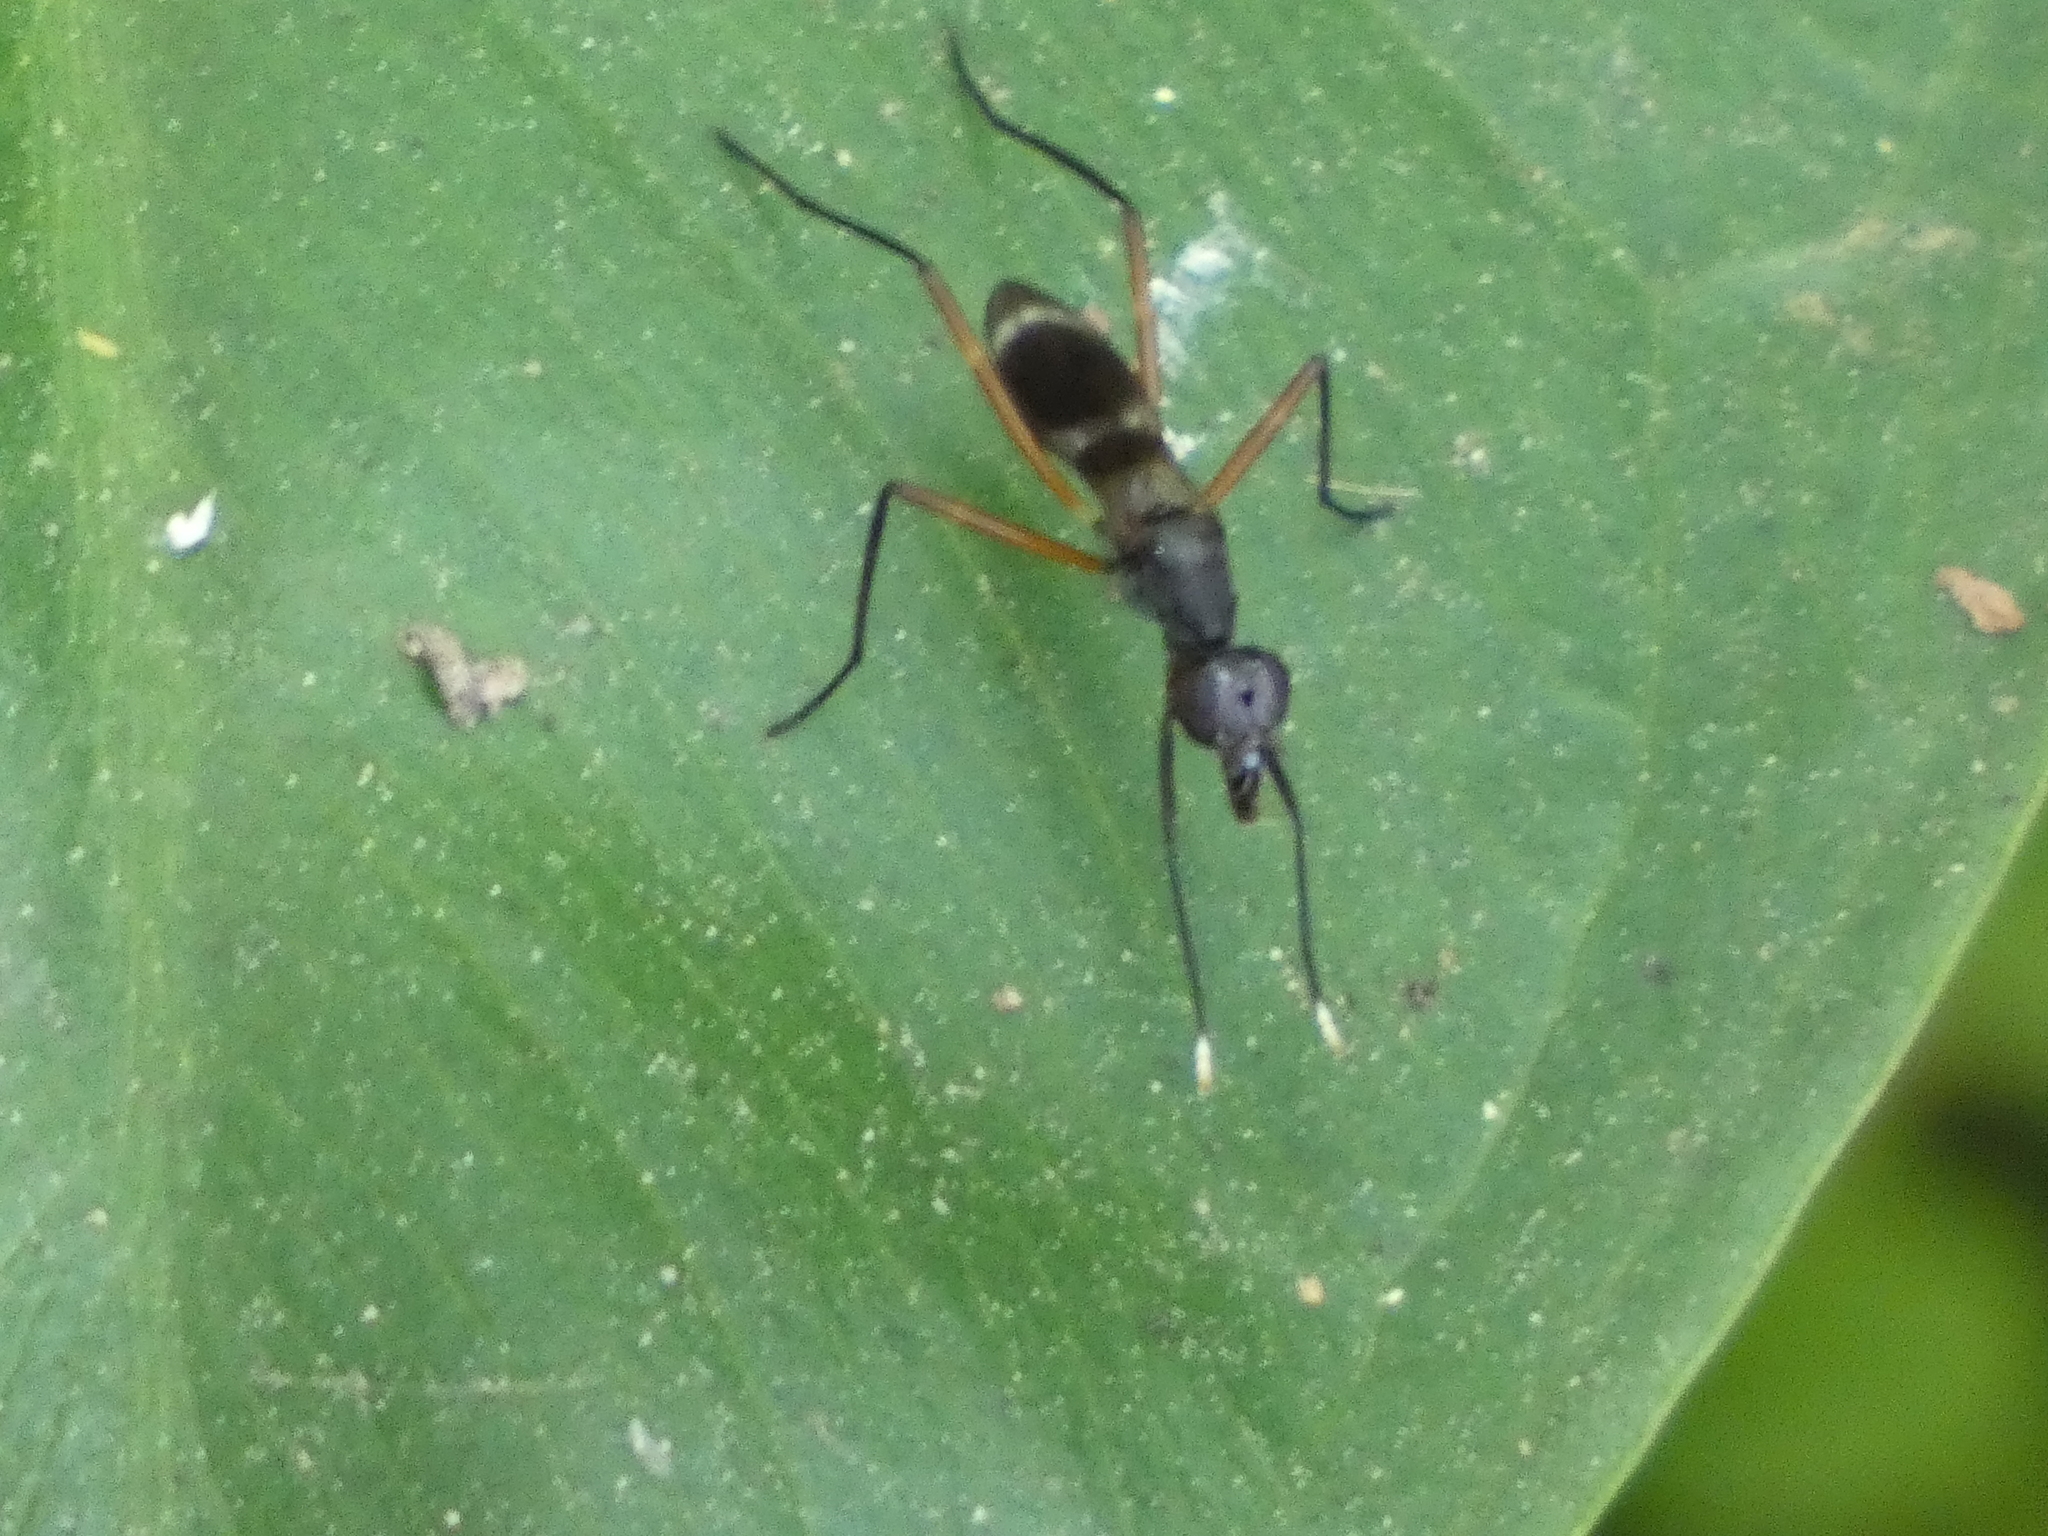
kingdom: Animalia
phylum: Arthropoda
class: Insecta
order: Diptera
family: Micropezidae
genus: Taeniaptera
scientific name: Taeniaptera trivittata
